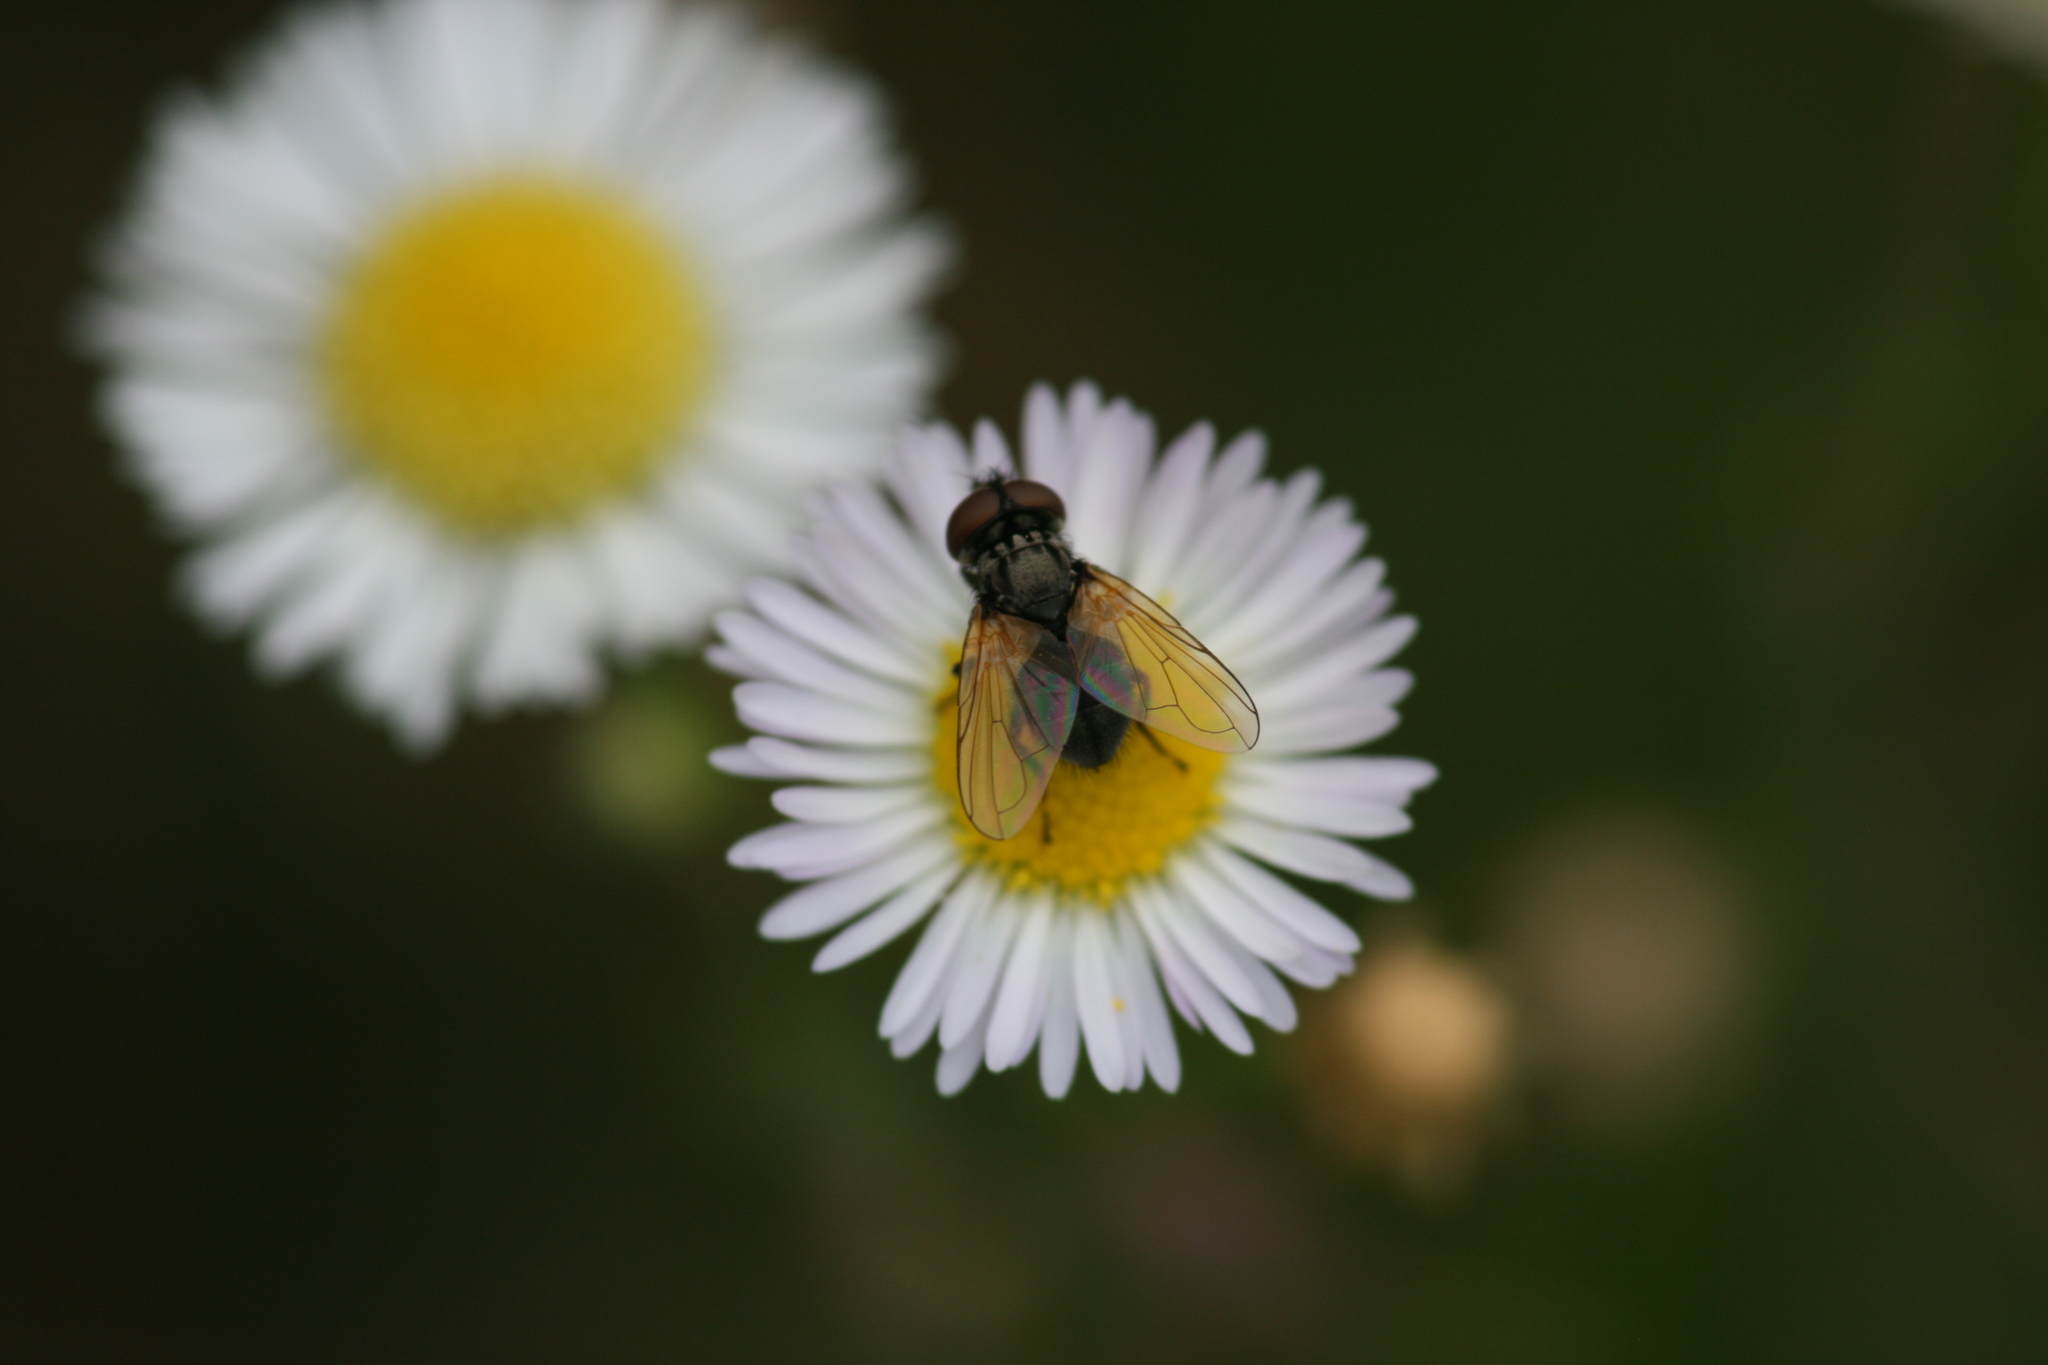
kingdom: Animalia
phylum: Arthropoda
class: Insecta
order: Diptera
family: Tachinidae
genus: Phasia
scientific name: Phasia obesa
